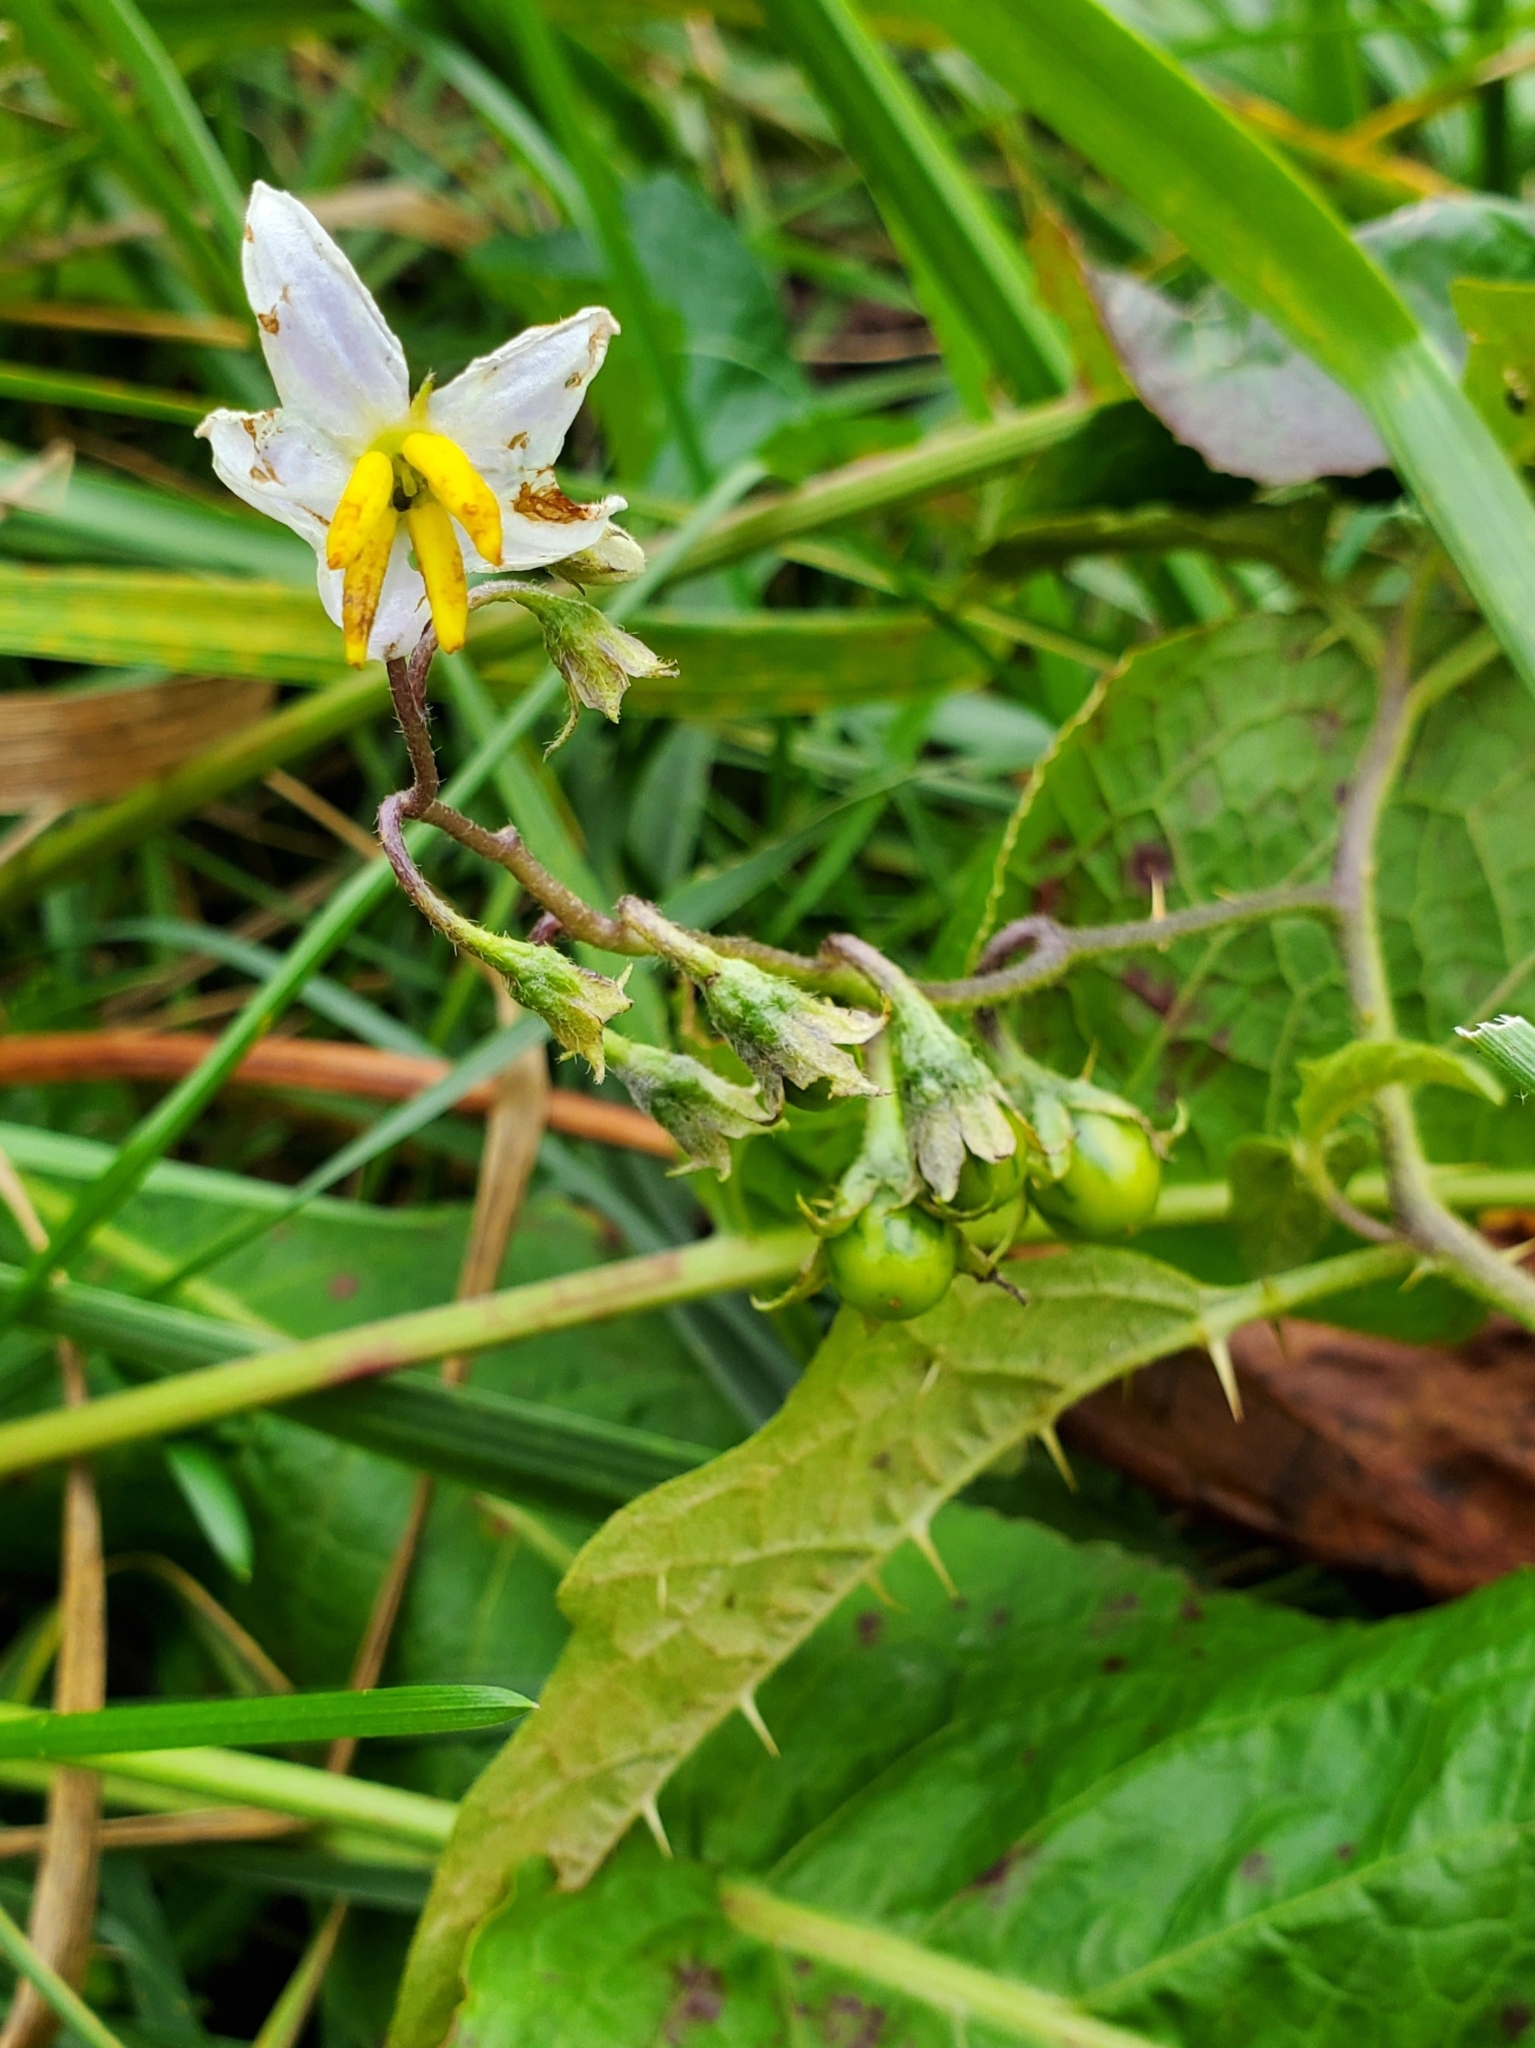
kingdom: Plantae
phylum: Tracheophyta
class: Magnoliopsida
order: Solanales
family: Solanaceae
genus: Solanum
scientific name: Solanum carolinense
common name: Horse-nettle
